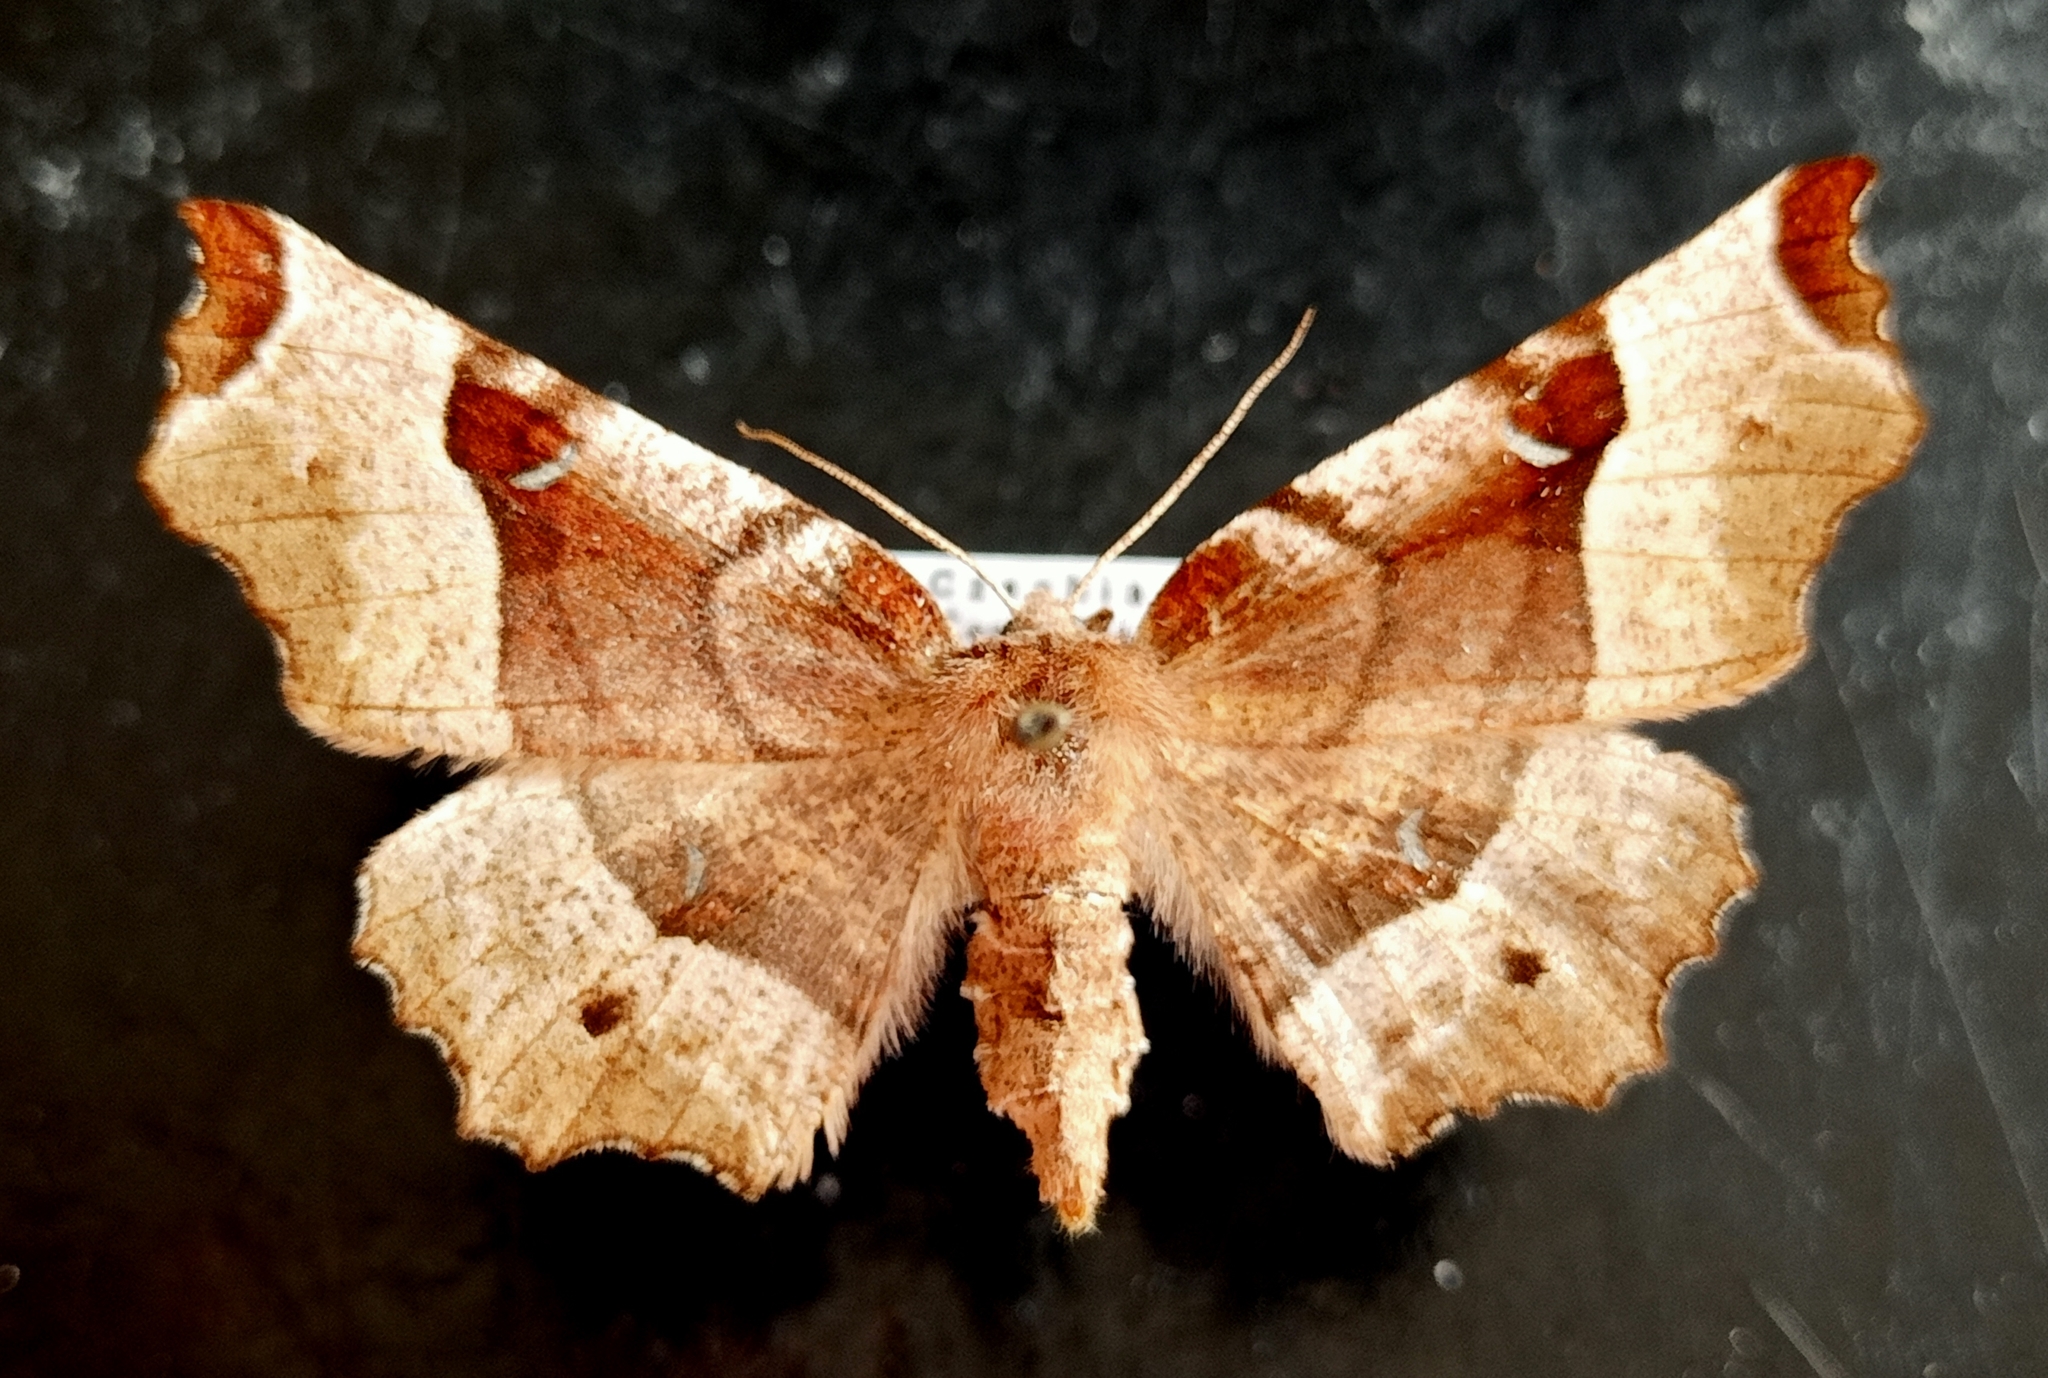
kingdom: Animalia
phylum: Arthropoda
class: Insecta
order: Lepidoptera
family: Geometridae
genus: Selenia
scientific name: Selenia tetralunaria
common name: Purple thorn
